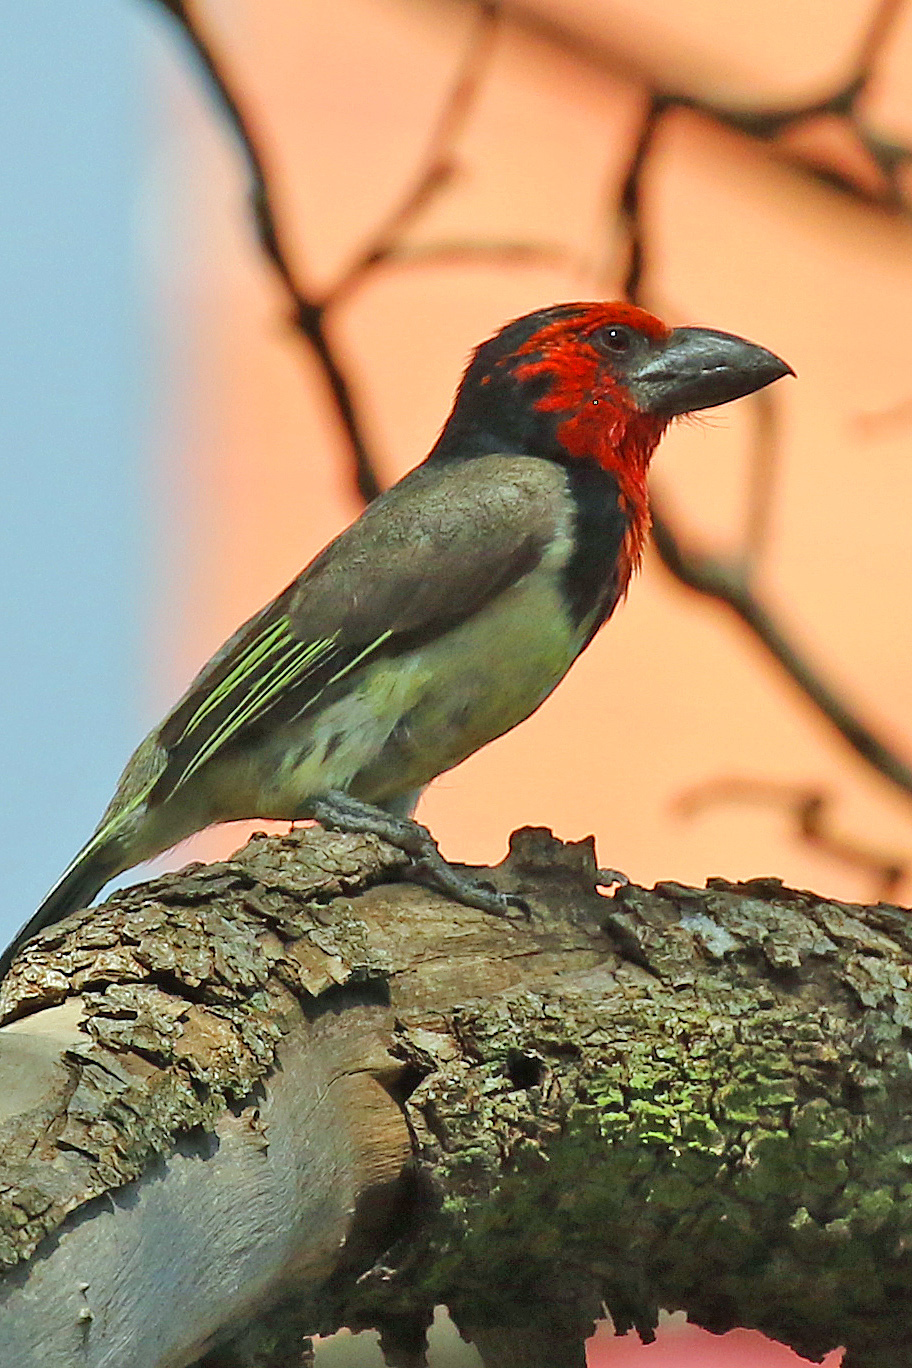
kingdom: Animalia
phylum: Chordata
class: Aves
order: Piciformes
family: Lybiidae
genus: Lybius
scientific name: Lybius torquatus
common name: Black-collared barbet
